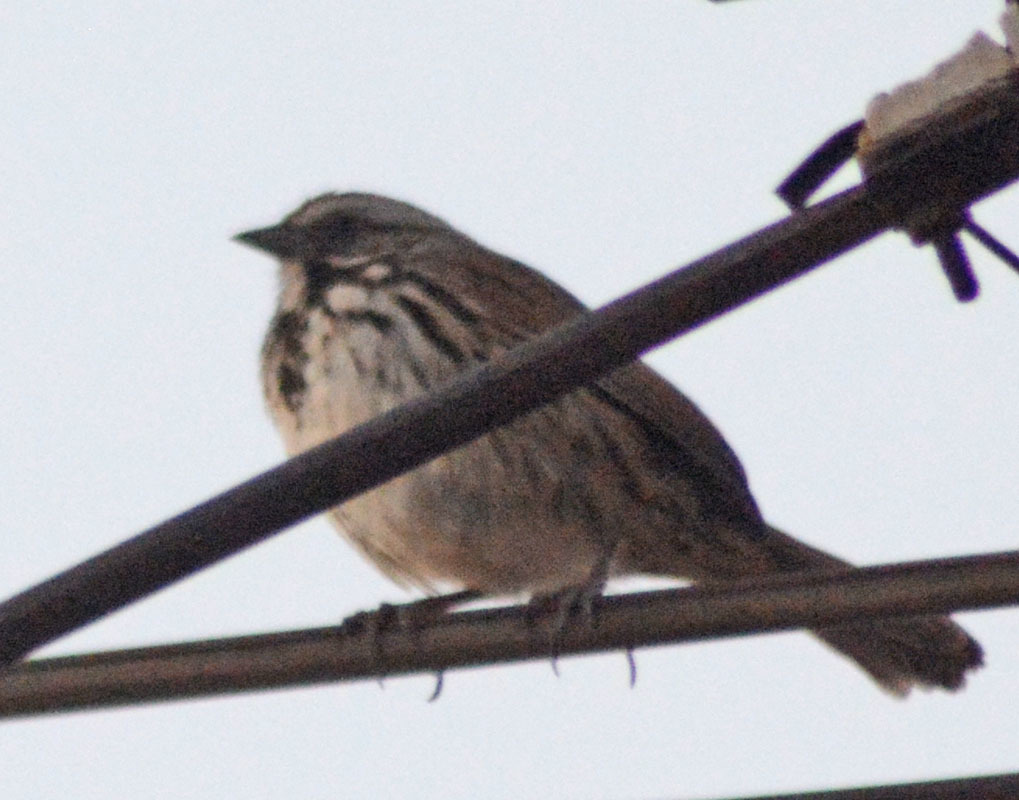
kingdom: Animalia
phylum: Chordata
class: Aves
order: Passeriformes
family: Passerellidae
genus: Melospiza
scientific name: Melospiza melodia
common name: Song sparrow
